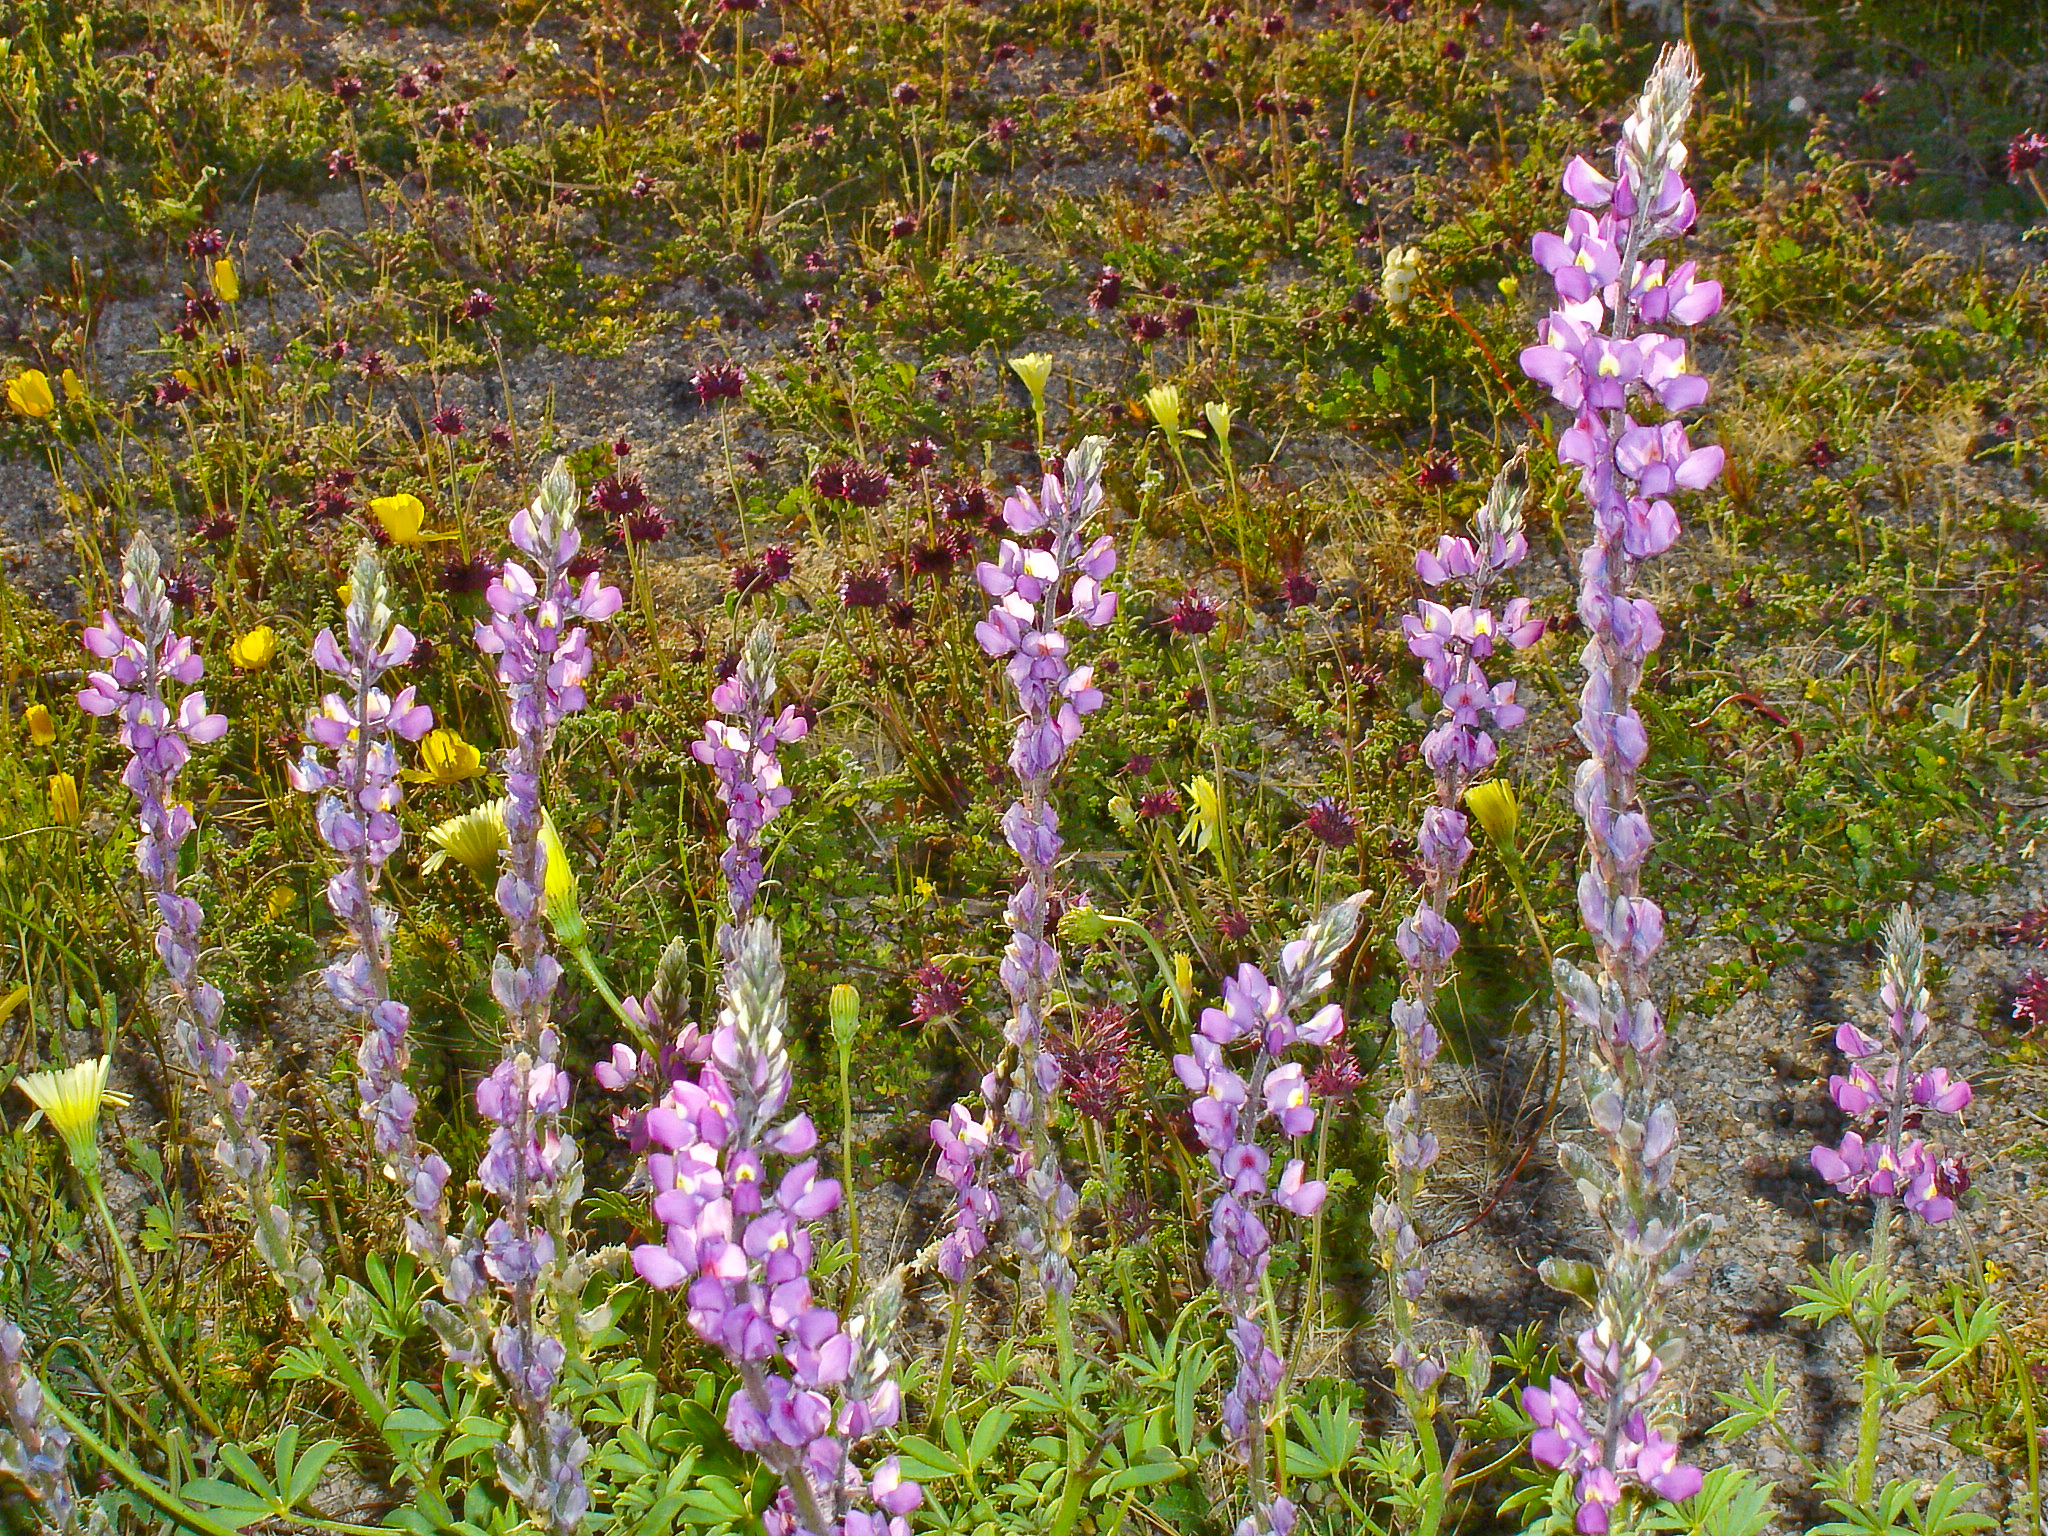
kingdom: Plantae
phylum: Tracheophyta
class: Magnoliopsida
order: Fabales
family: Fabaceae
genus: Lupinus
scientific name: Lupinus arizonicus
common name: Arizona lupine
